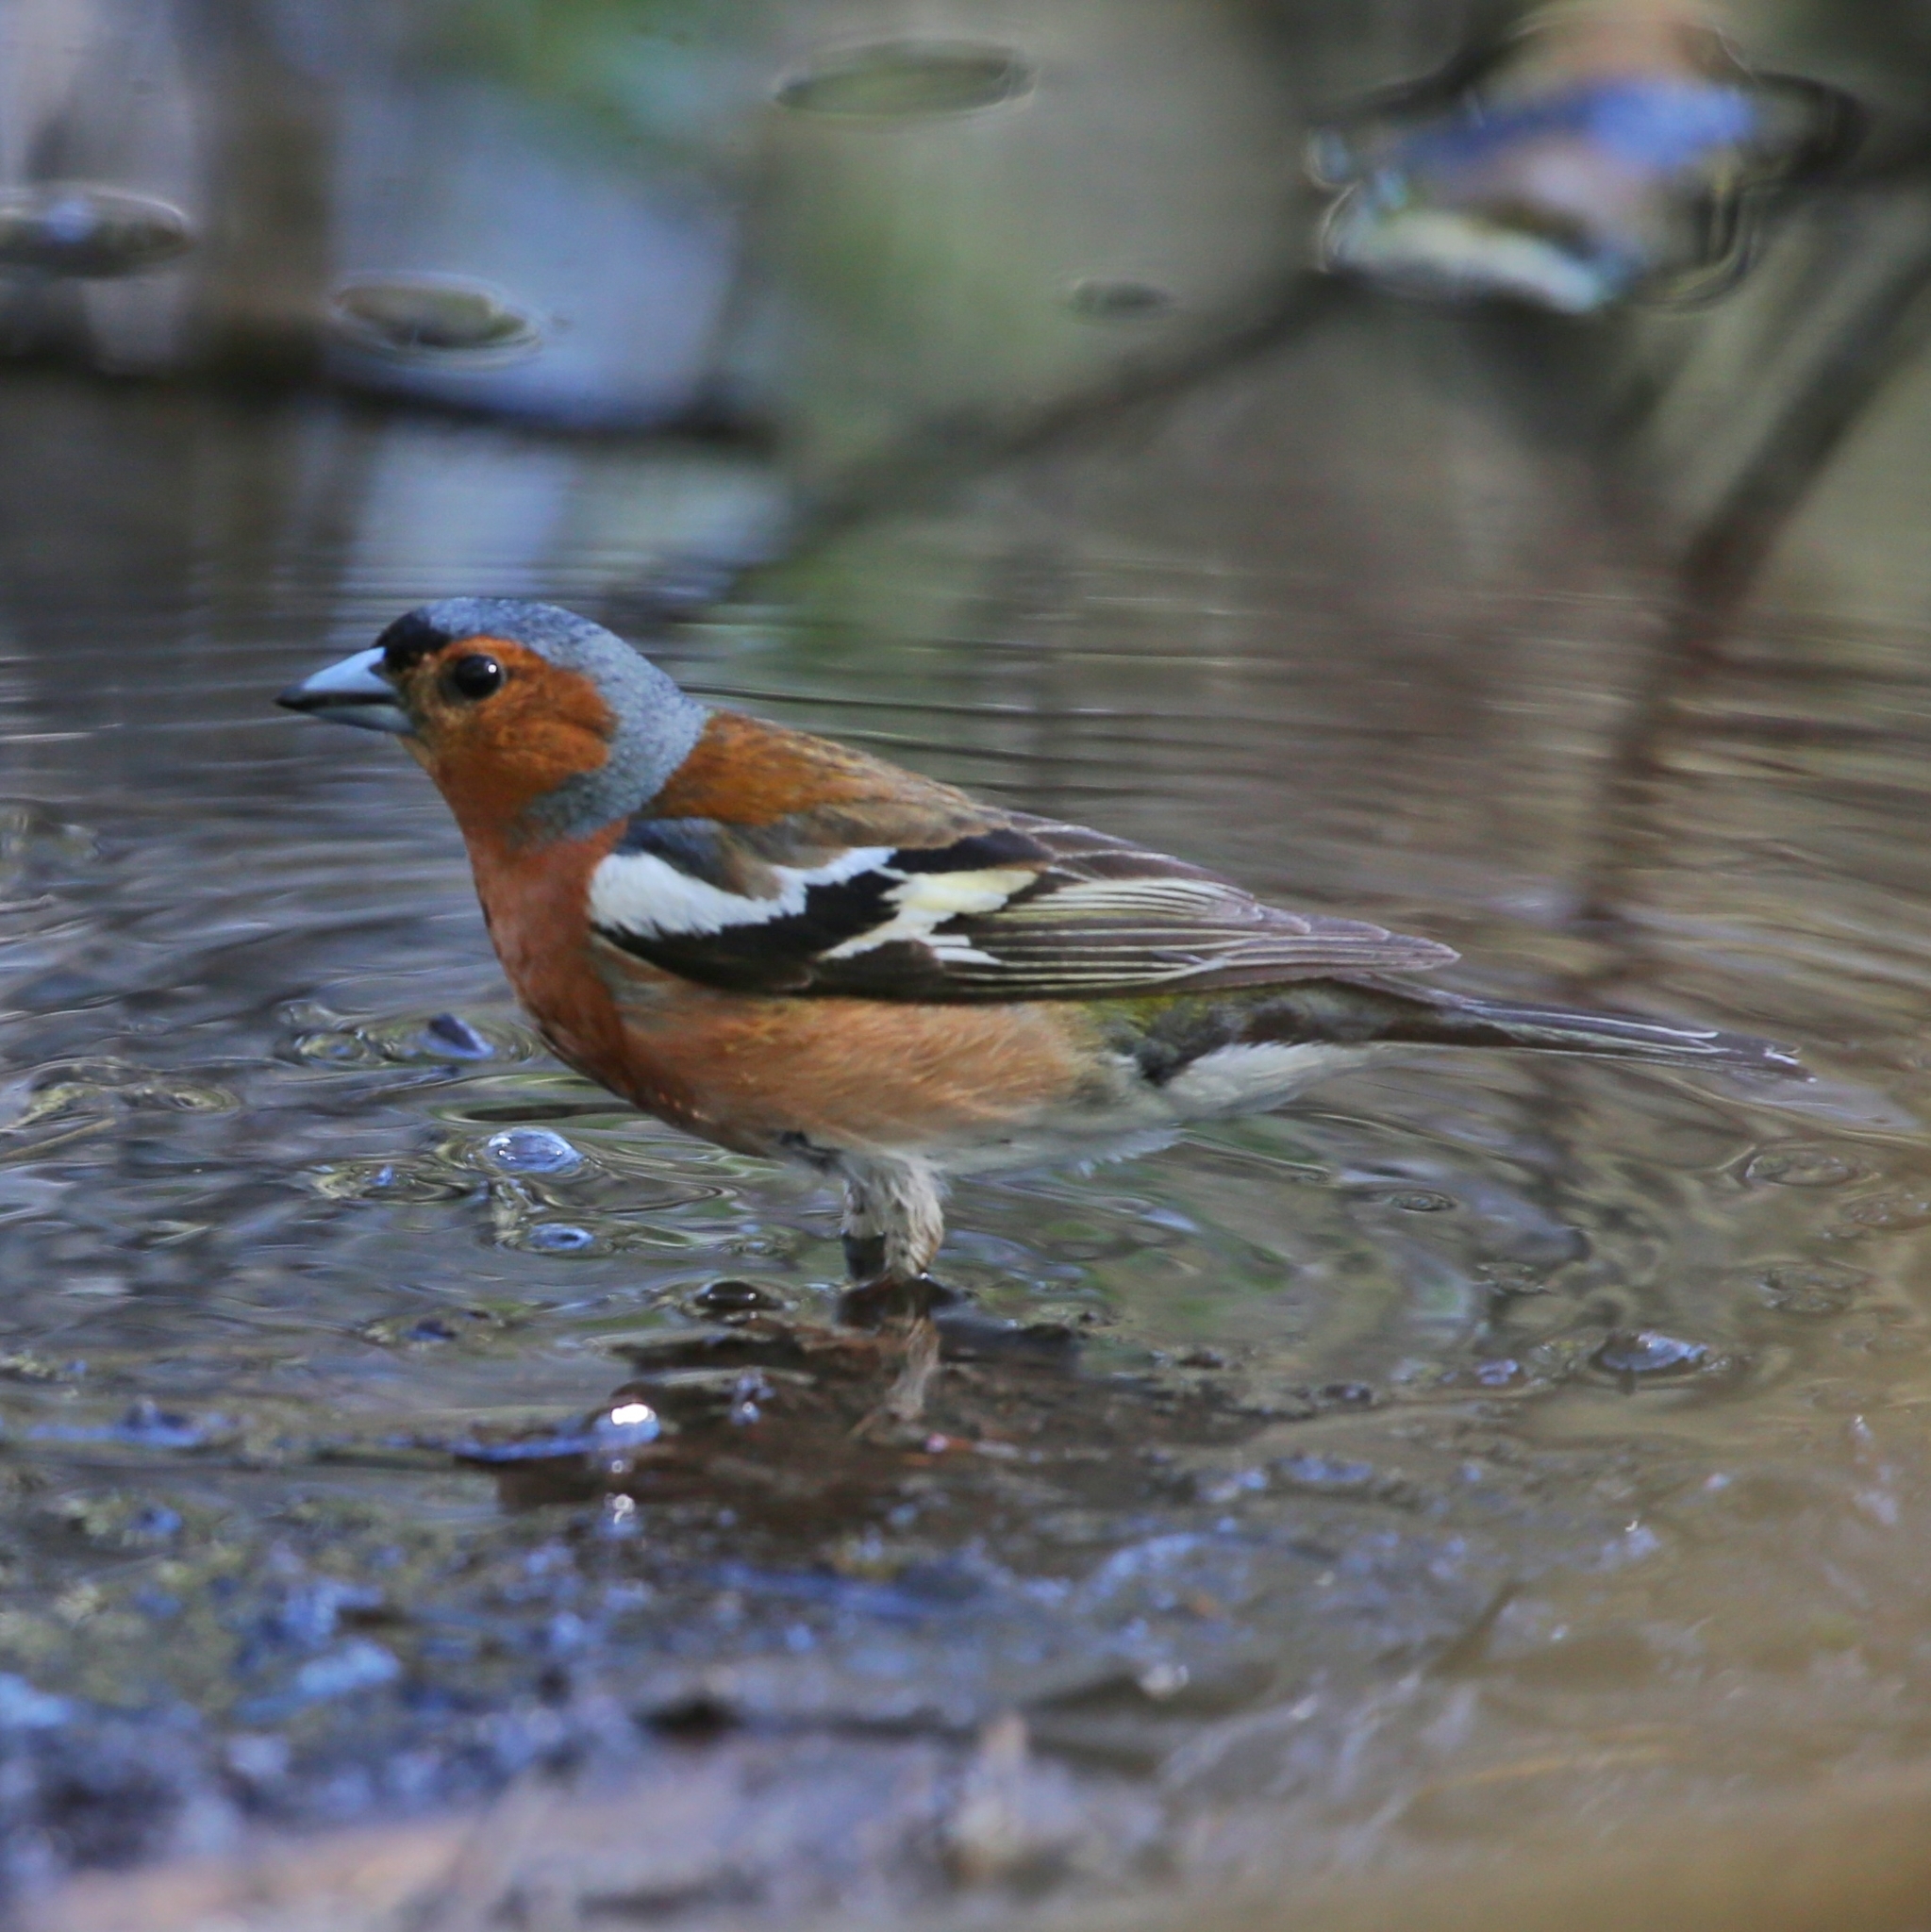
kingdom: Animalia
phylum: Chordata
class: Aves
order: Passeriformes
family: Fringillidae
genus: Fringilla
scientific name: Fringilla coelebs
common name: Common chaffinch
